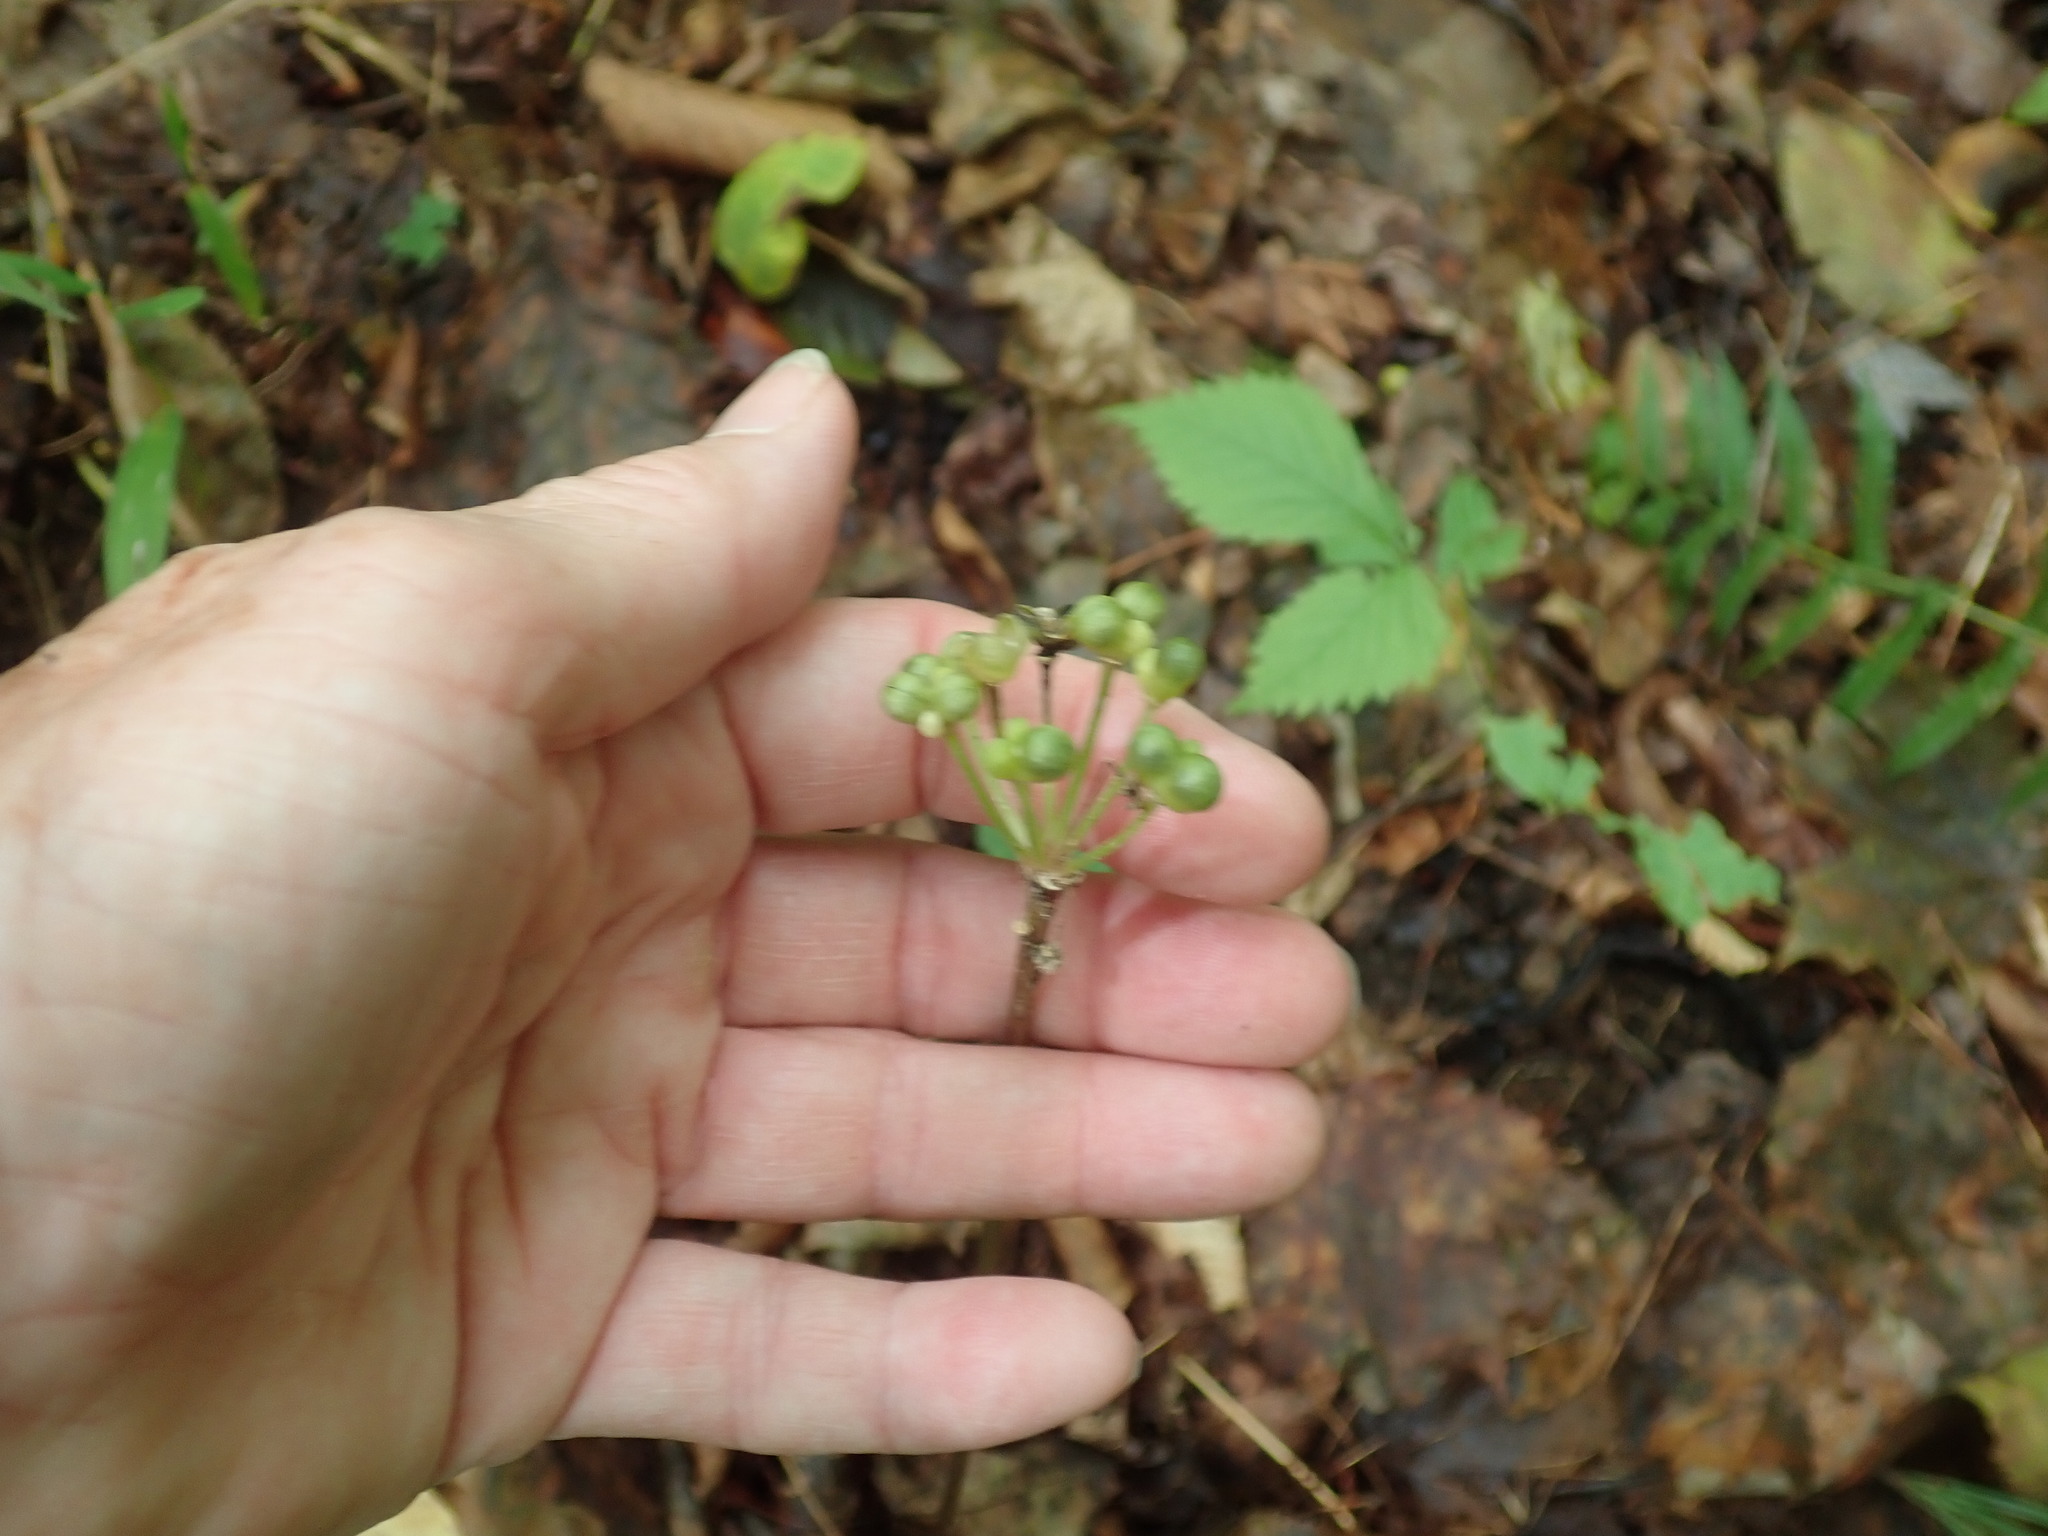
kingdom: Plantae
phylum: Tracheophyta
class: Liliopsida
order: Asparagales
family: Amaryllidaceae
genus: Allium
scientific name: Allium tricoccum
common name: Ramp
